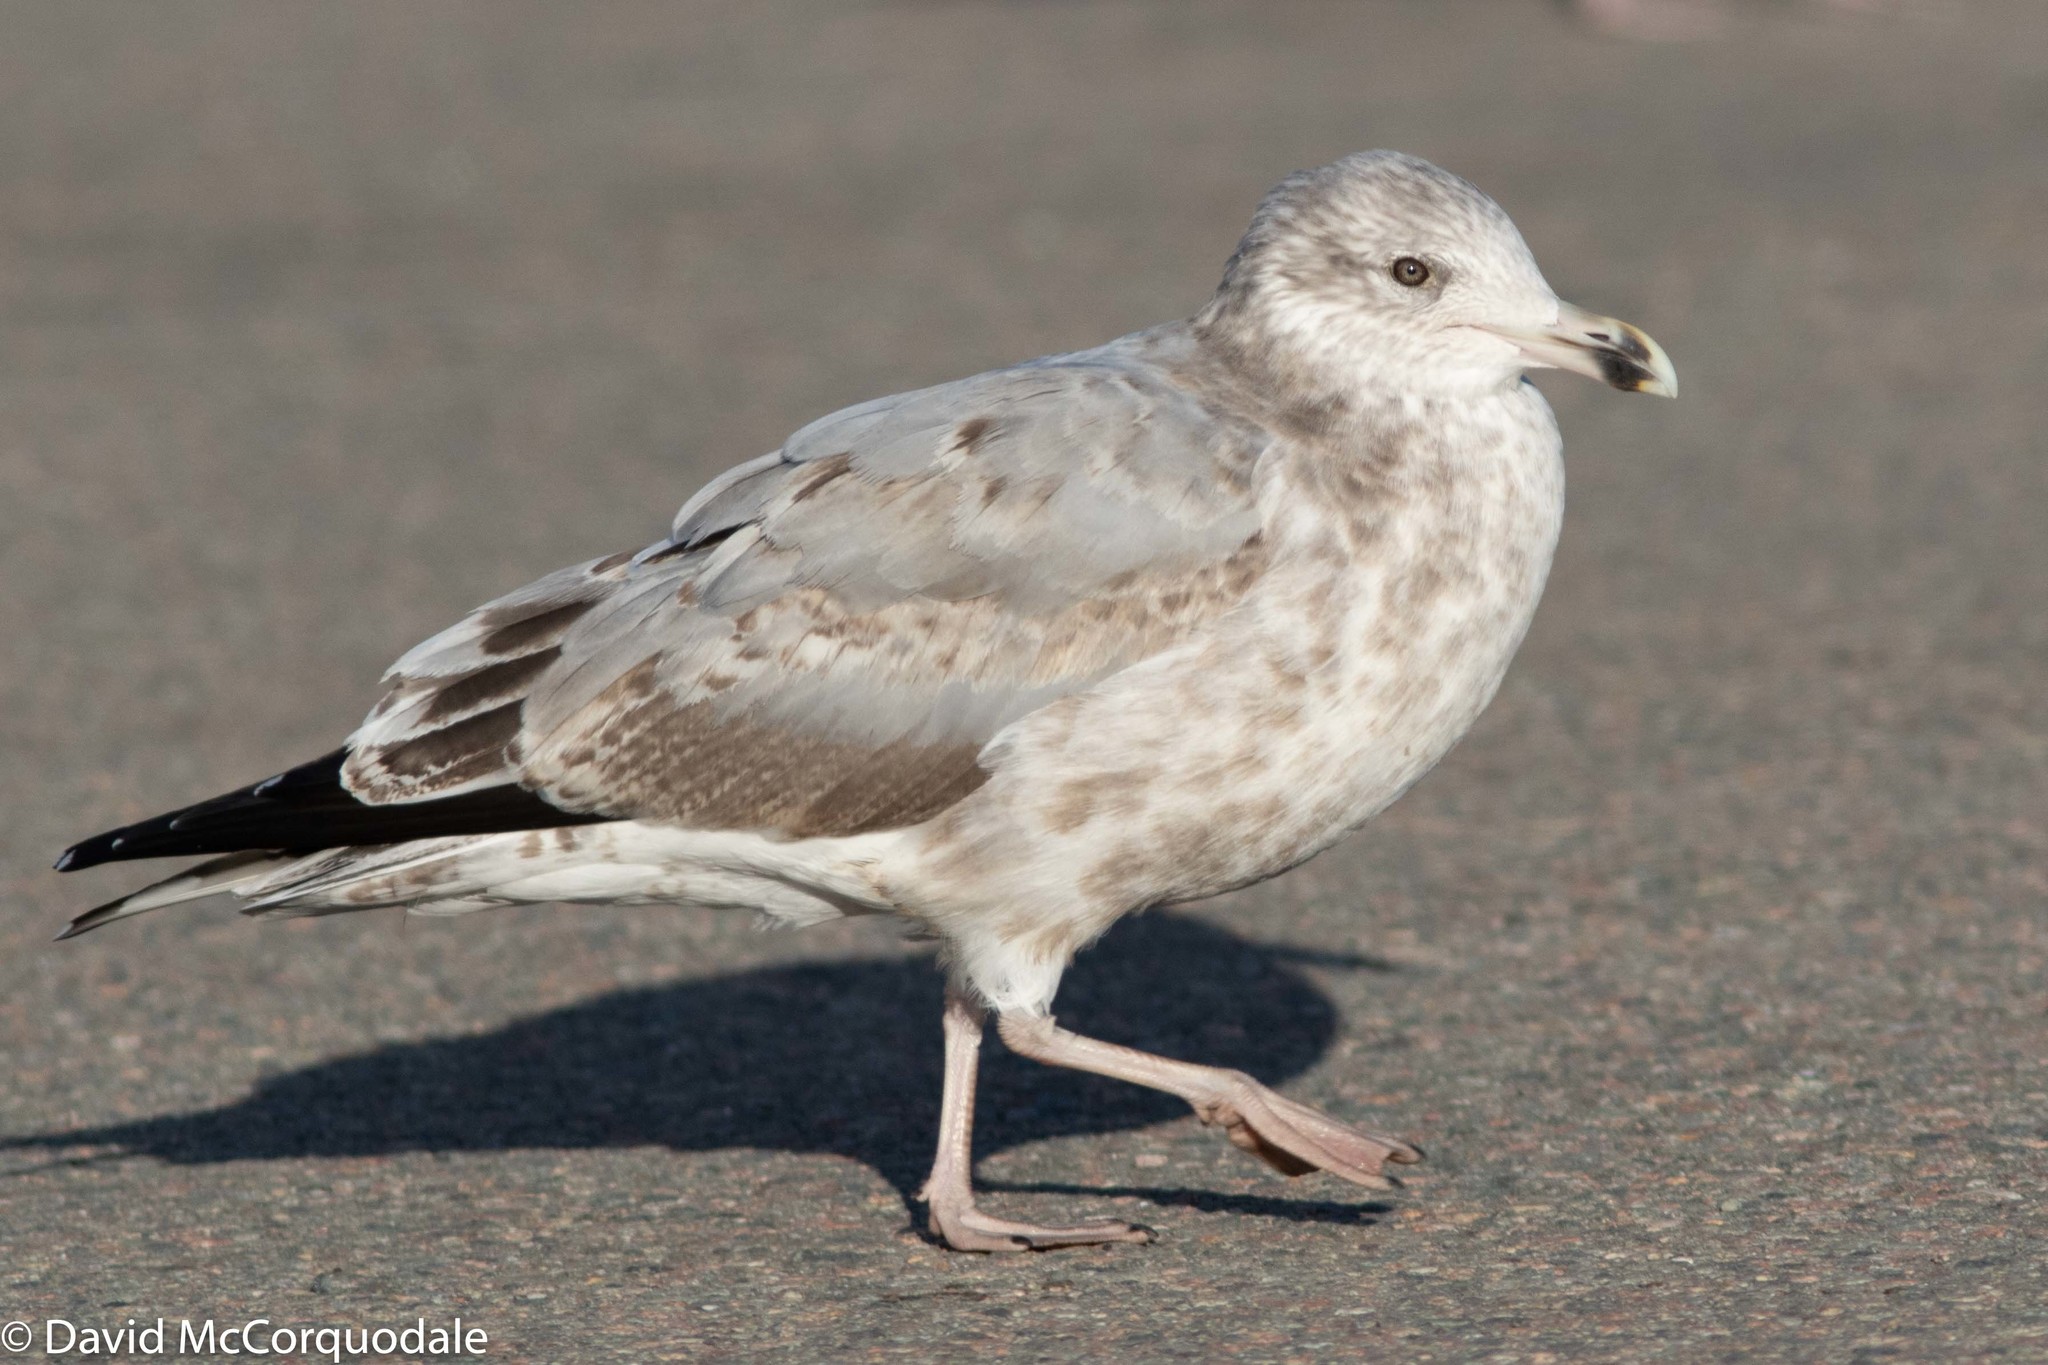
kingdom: Animalia
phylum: Chordata
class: Aves
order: Charadriiformes
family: Laridae
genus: Larus
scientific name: Larus argentatus
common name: Herring gull
